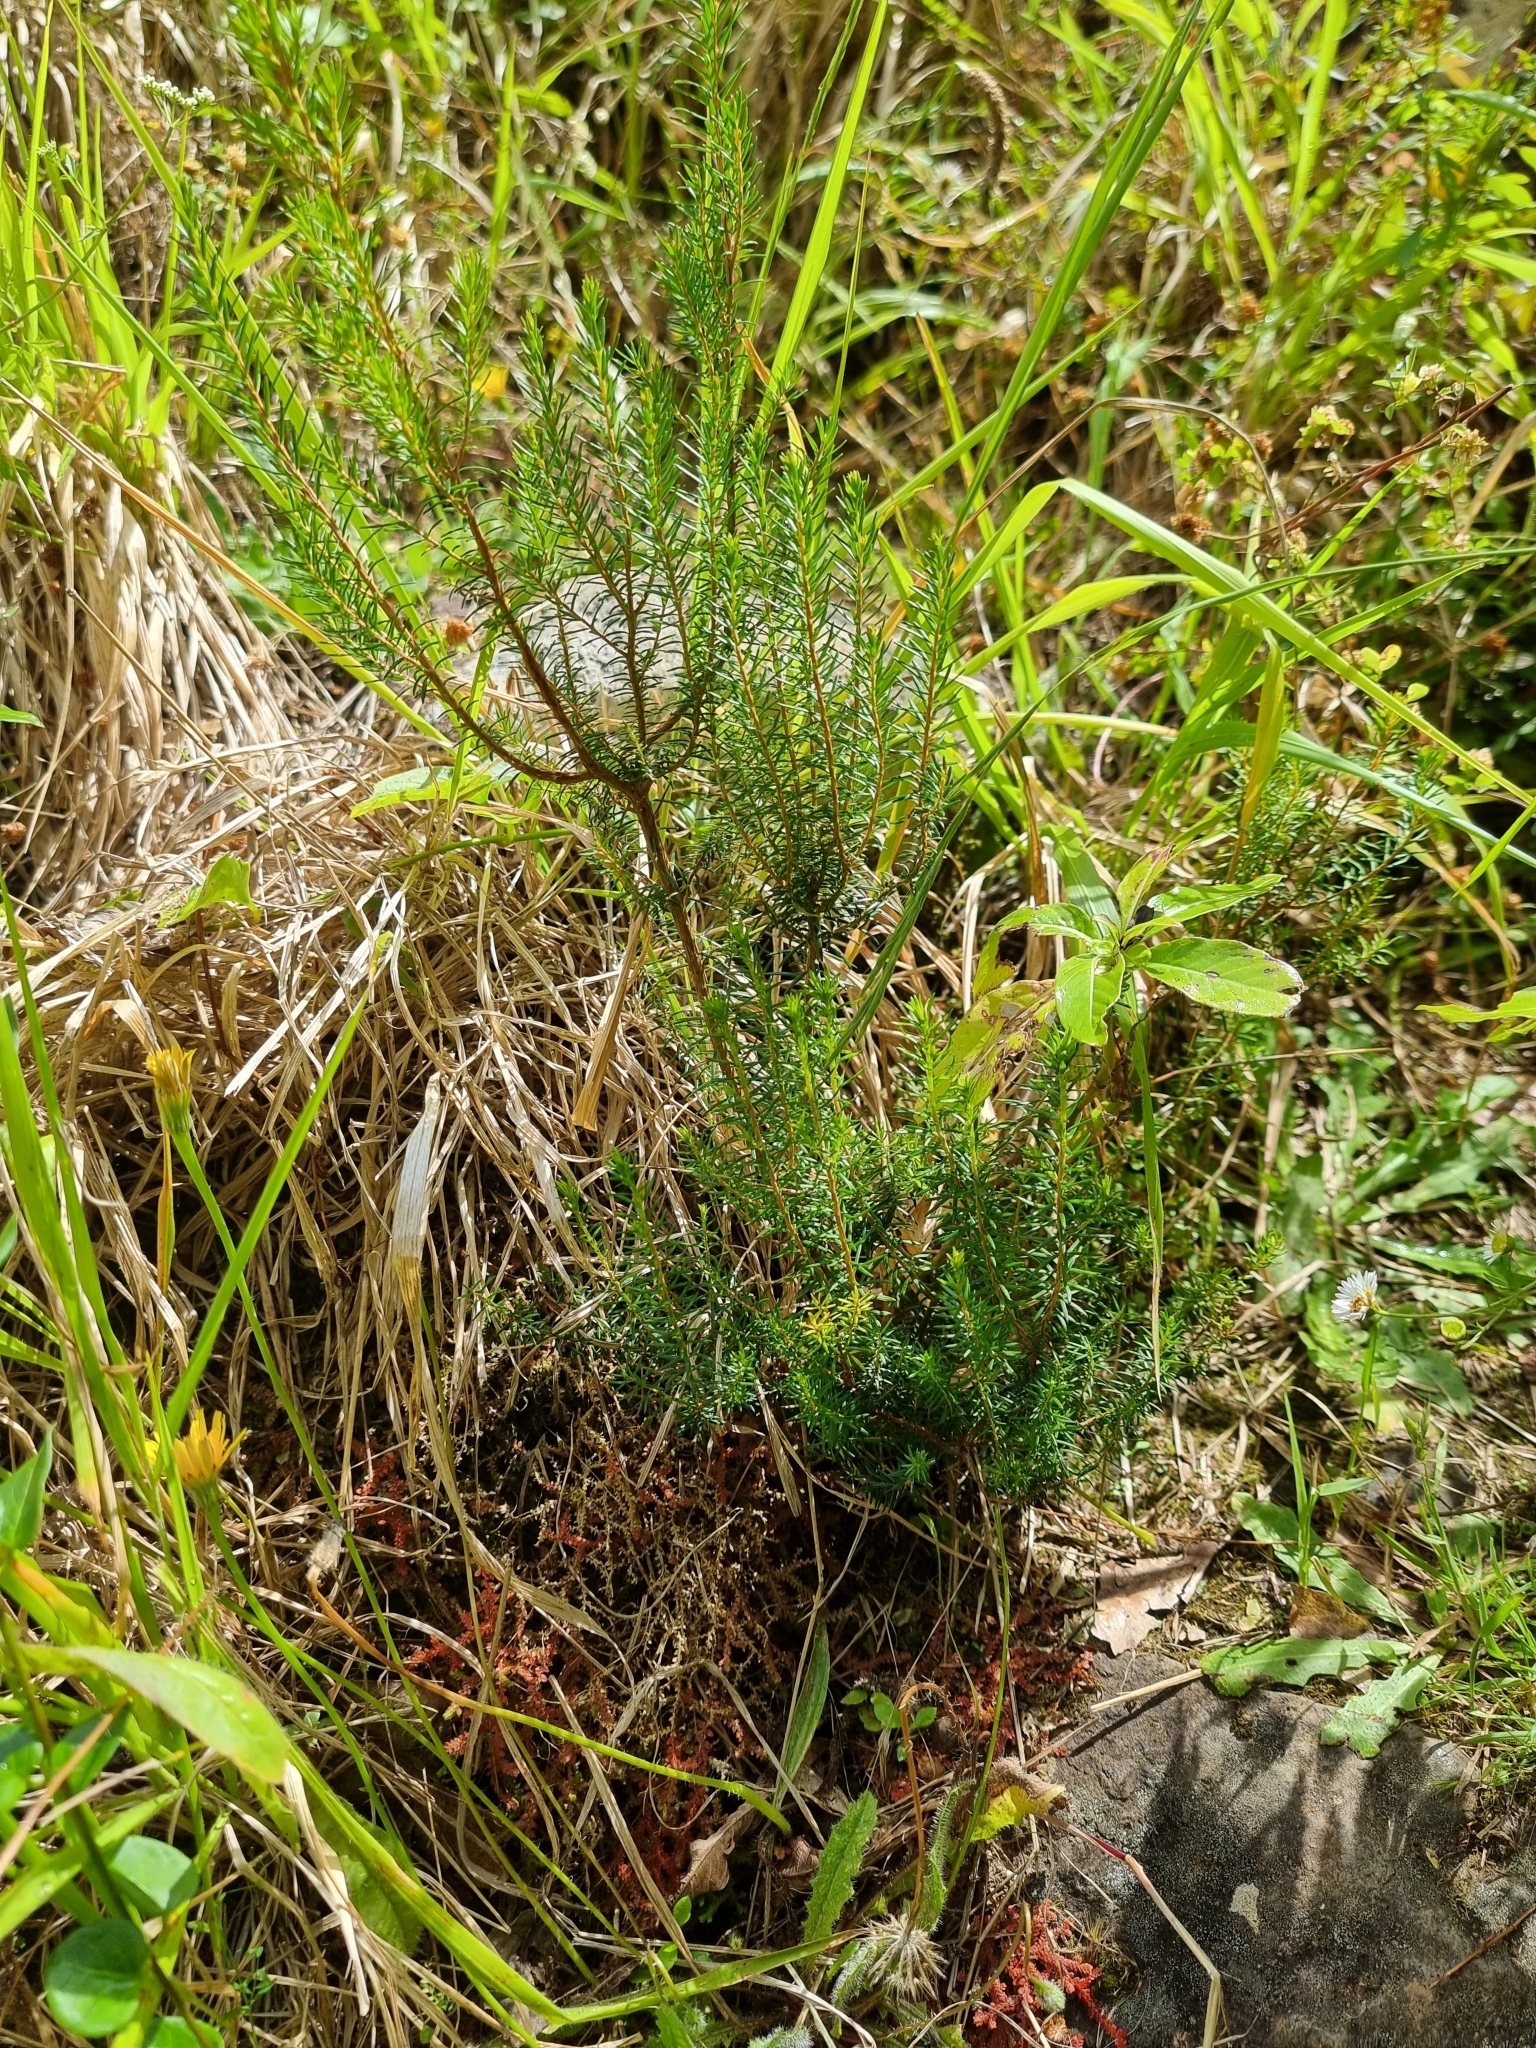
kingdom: Plantae
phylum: Tracheophyta
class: Magnoliopsida
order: Ericales
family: Ericaceae
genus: Erica
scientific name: Erica platycodon
